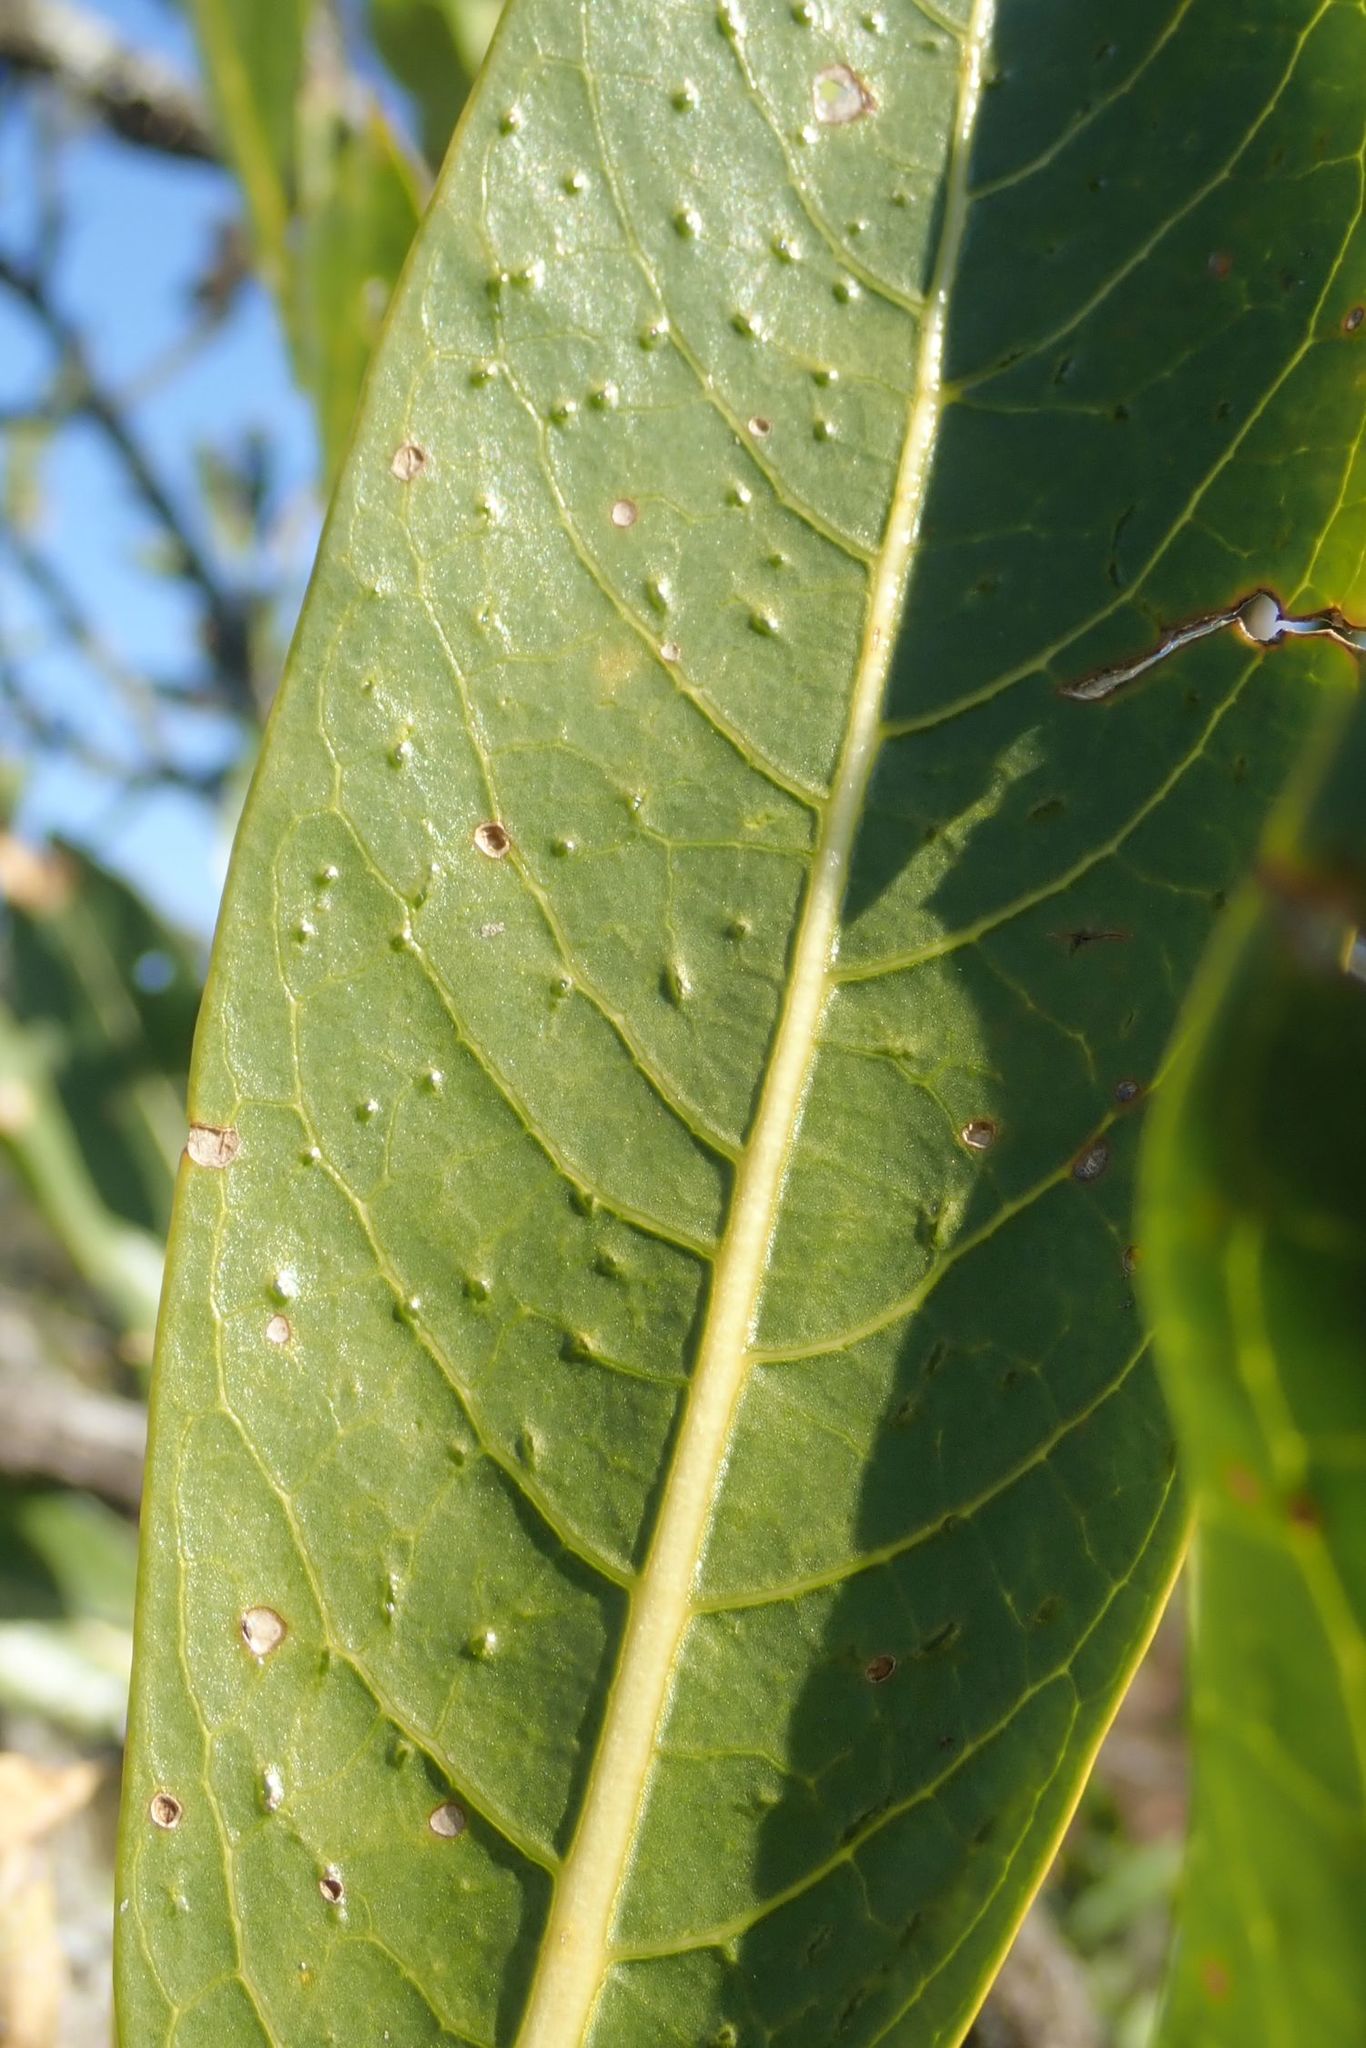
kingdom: Plantae
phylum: Tracheophyta
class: Magnoliopsida
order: Gentianales
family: Rubiaceae
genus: Pavetta
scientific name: Pavetta edentula
